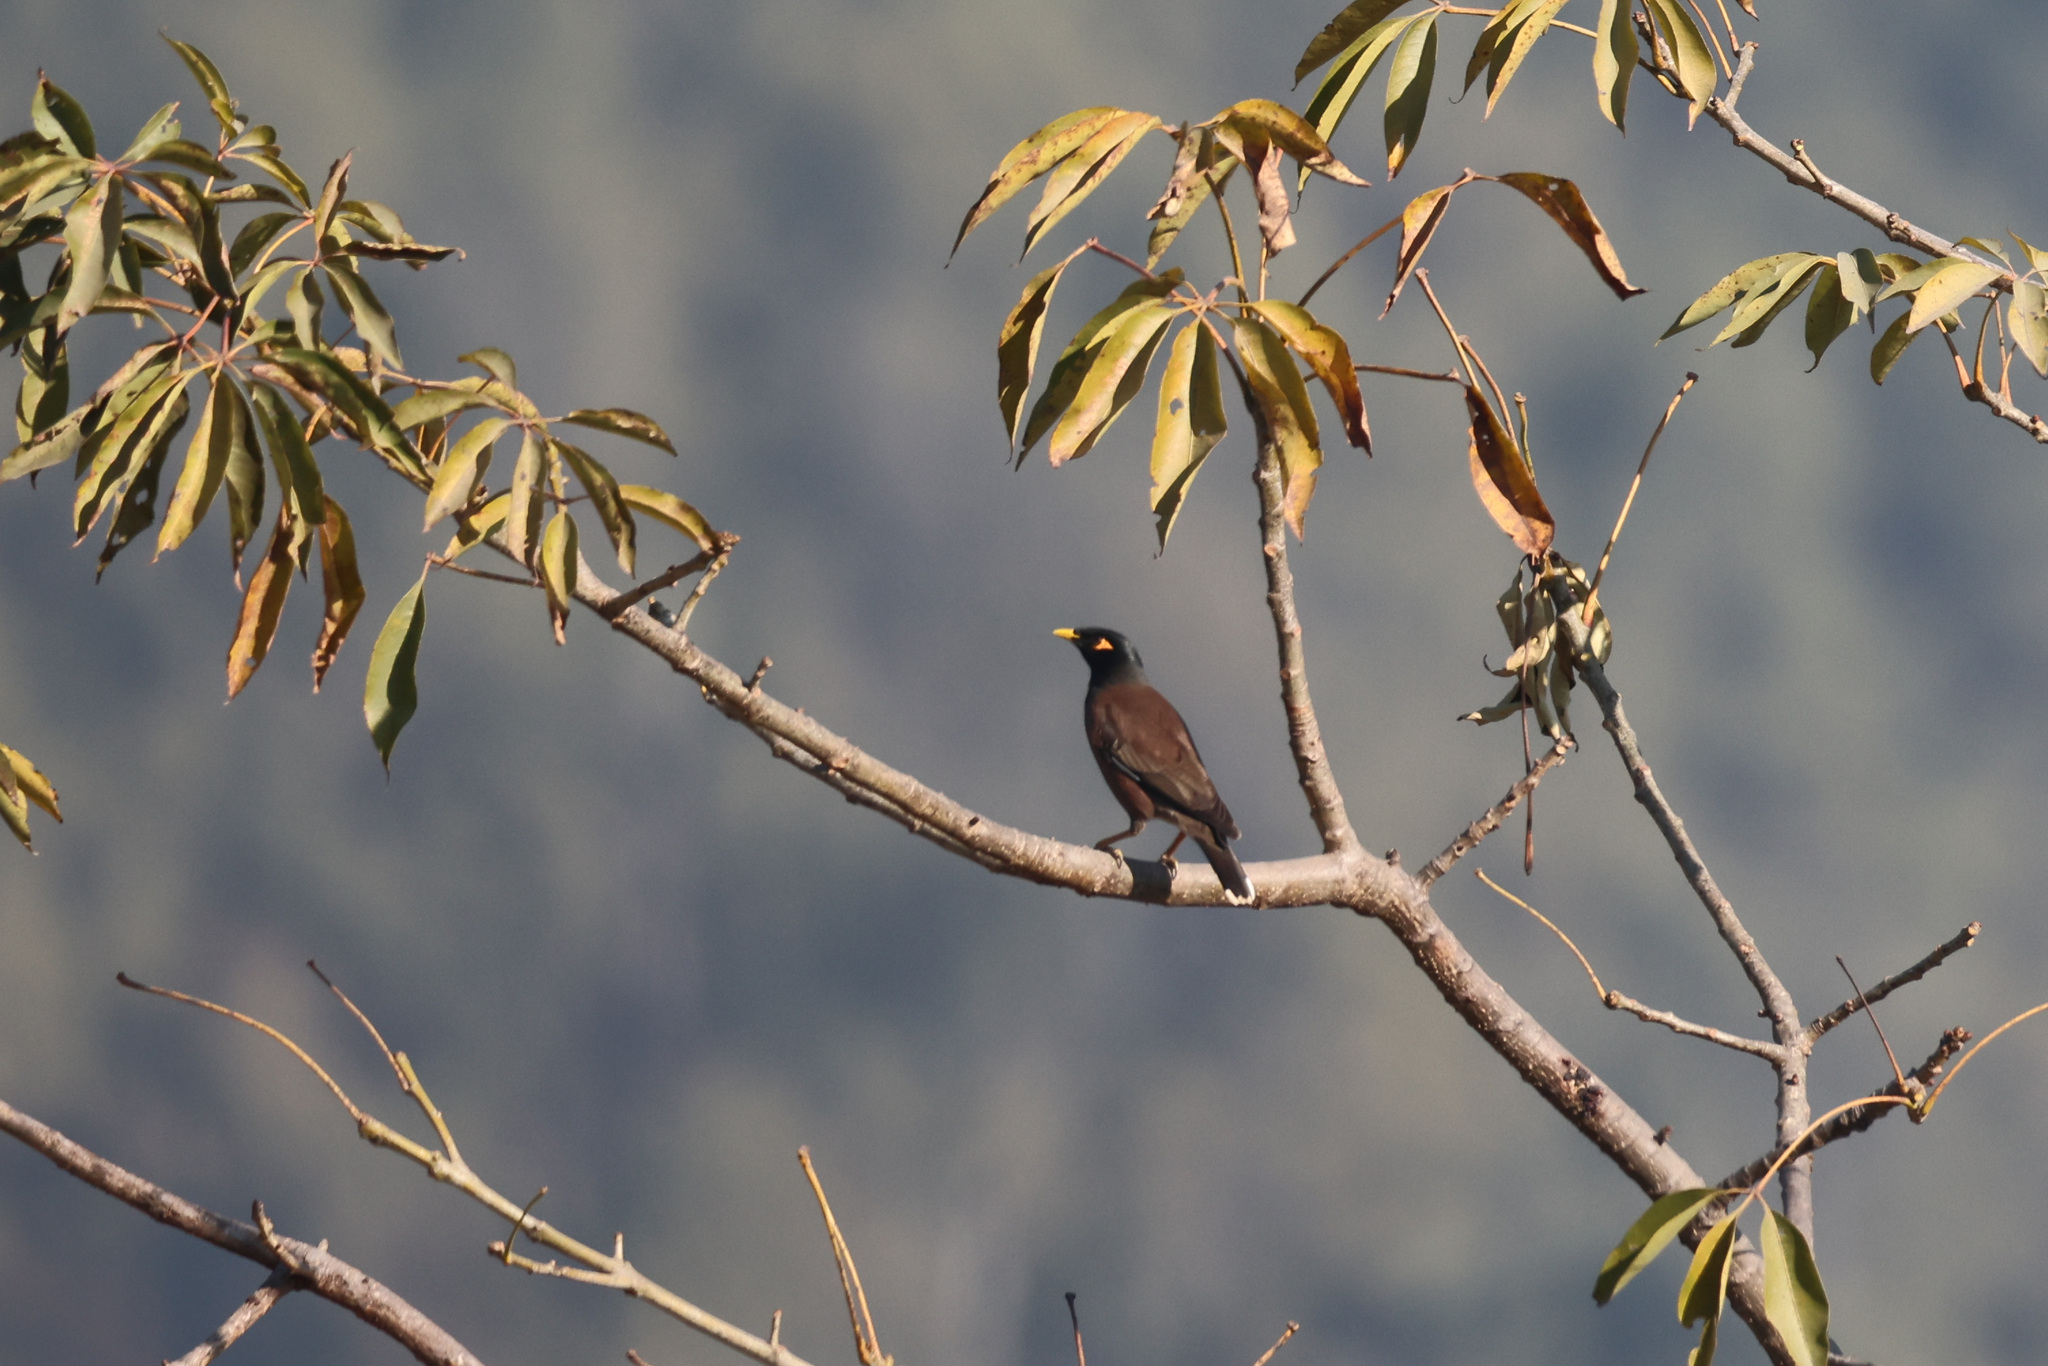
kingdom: Animalia
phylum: Chordata
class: Aves
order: Passeriformes
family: Sturnidae
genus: Acridotheres
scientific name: Acridotheres tristis
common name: Common myna
